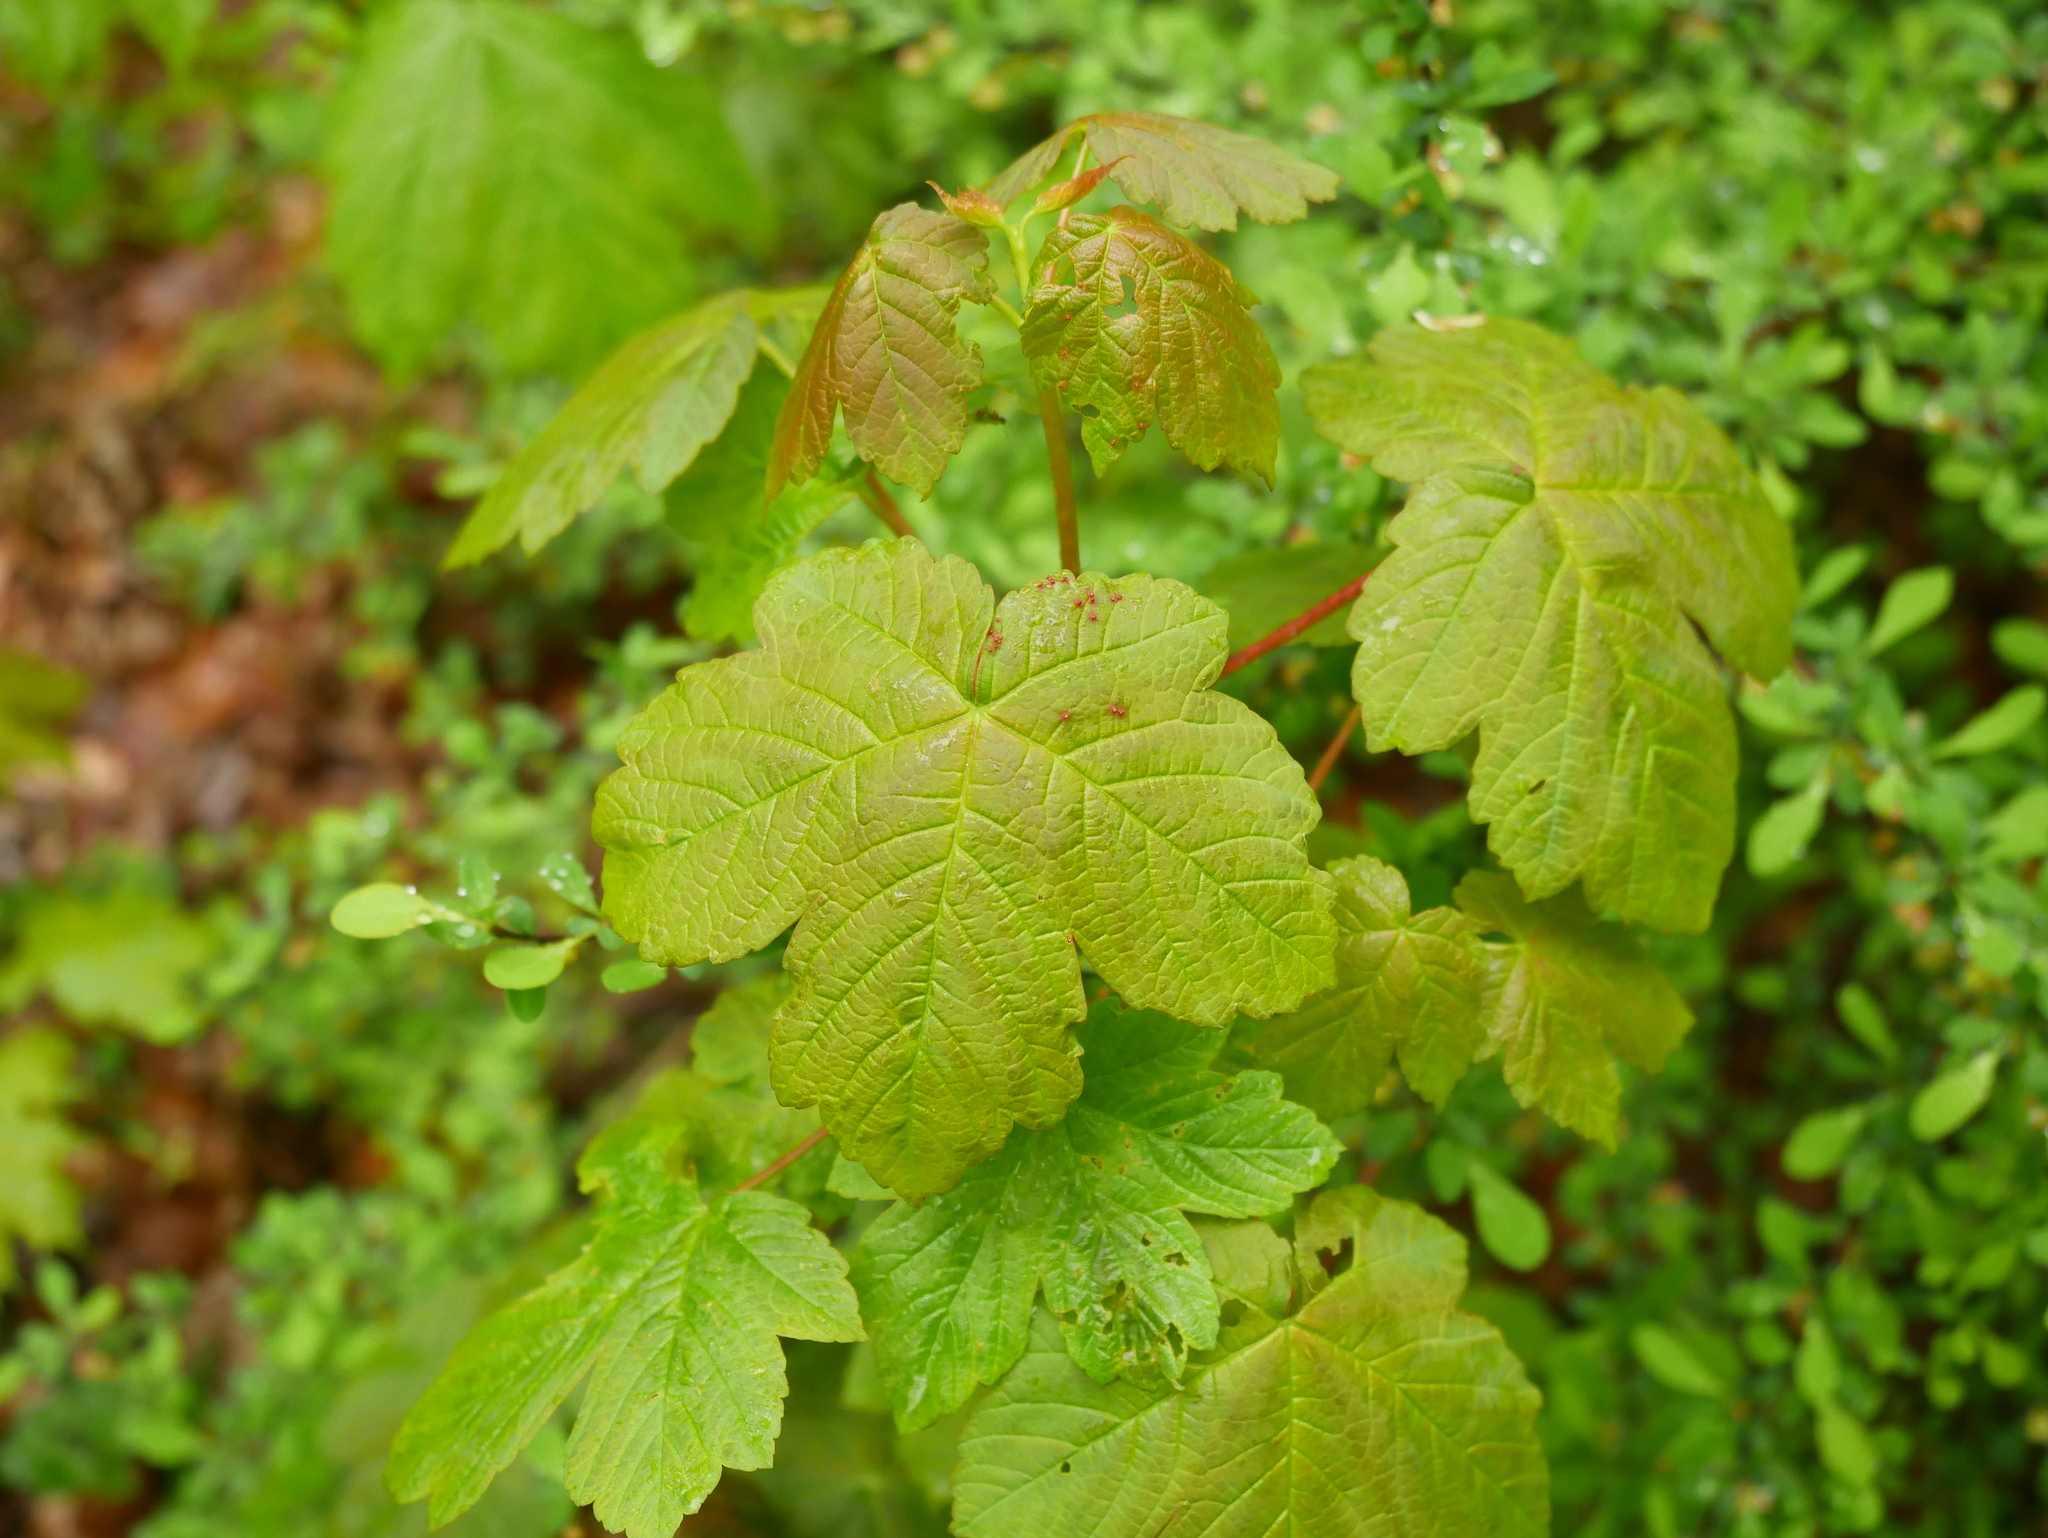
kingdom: Plantae
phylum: Tracheophyta
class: Magnoliopsida
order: Sapindales
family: Sapindaceae
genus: Acer
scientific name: Acer pseudoplatanus
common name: Sycamore
